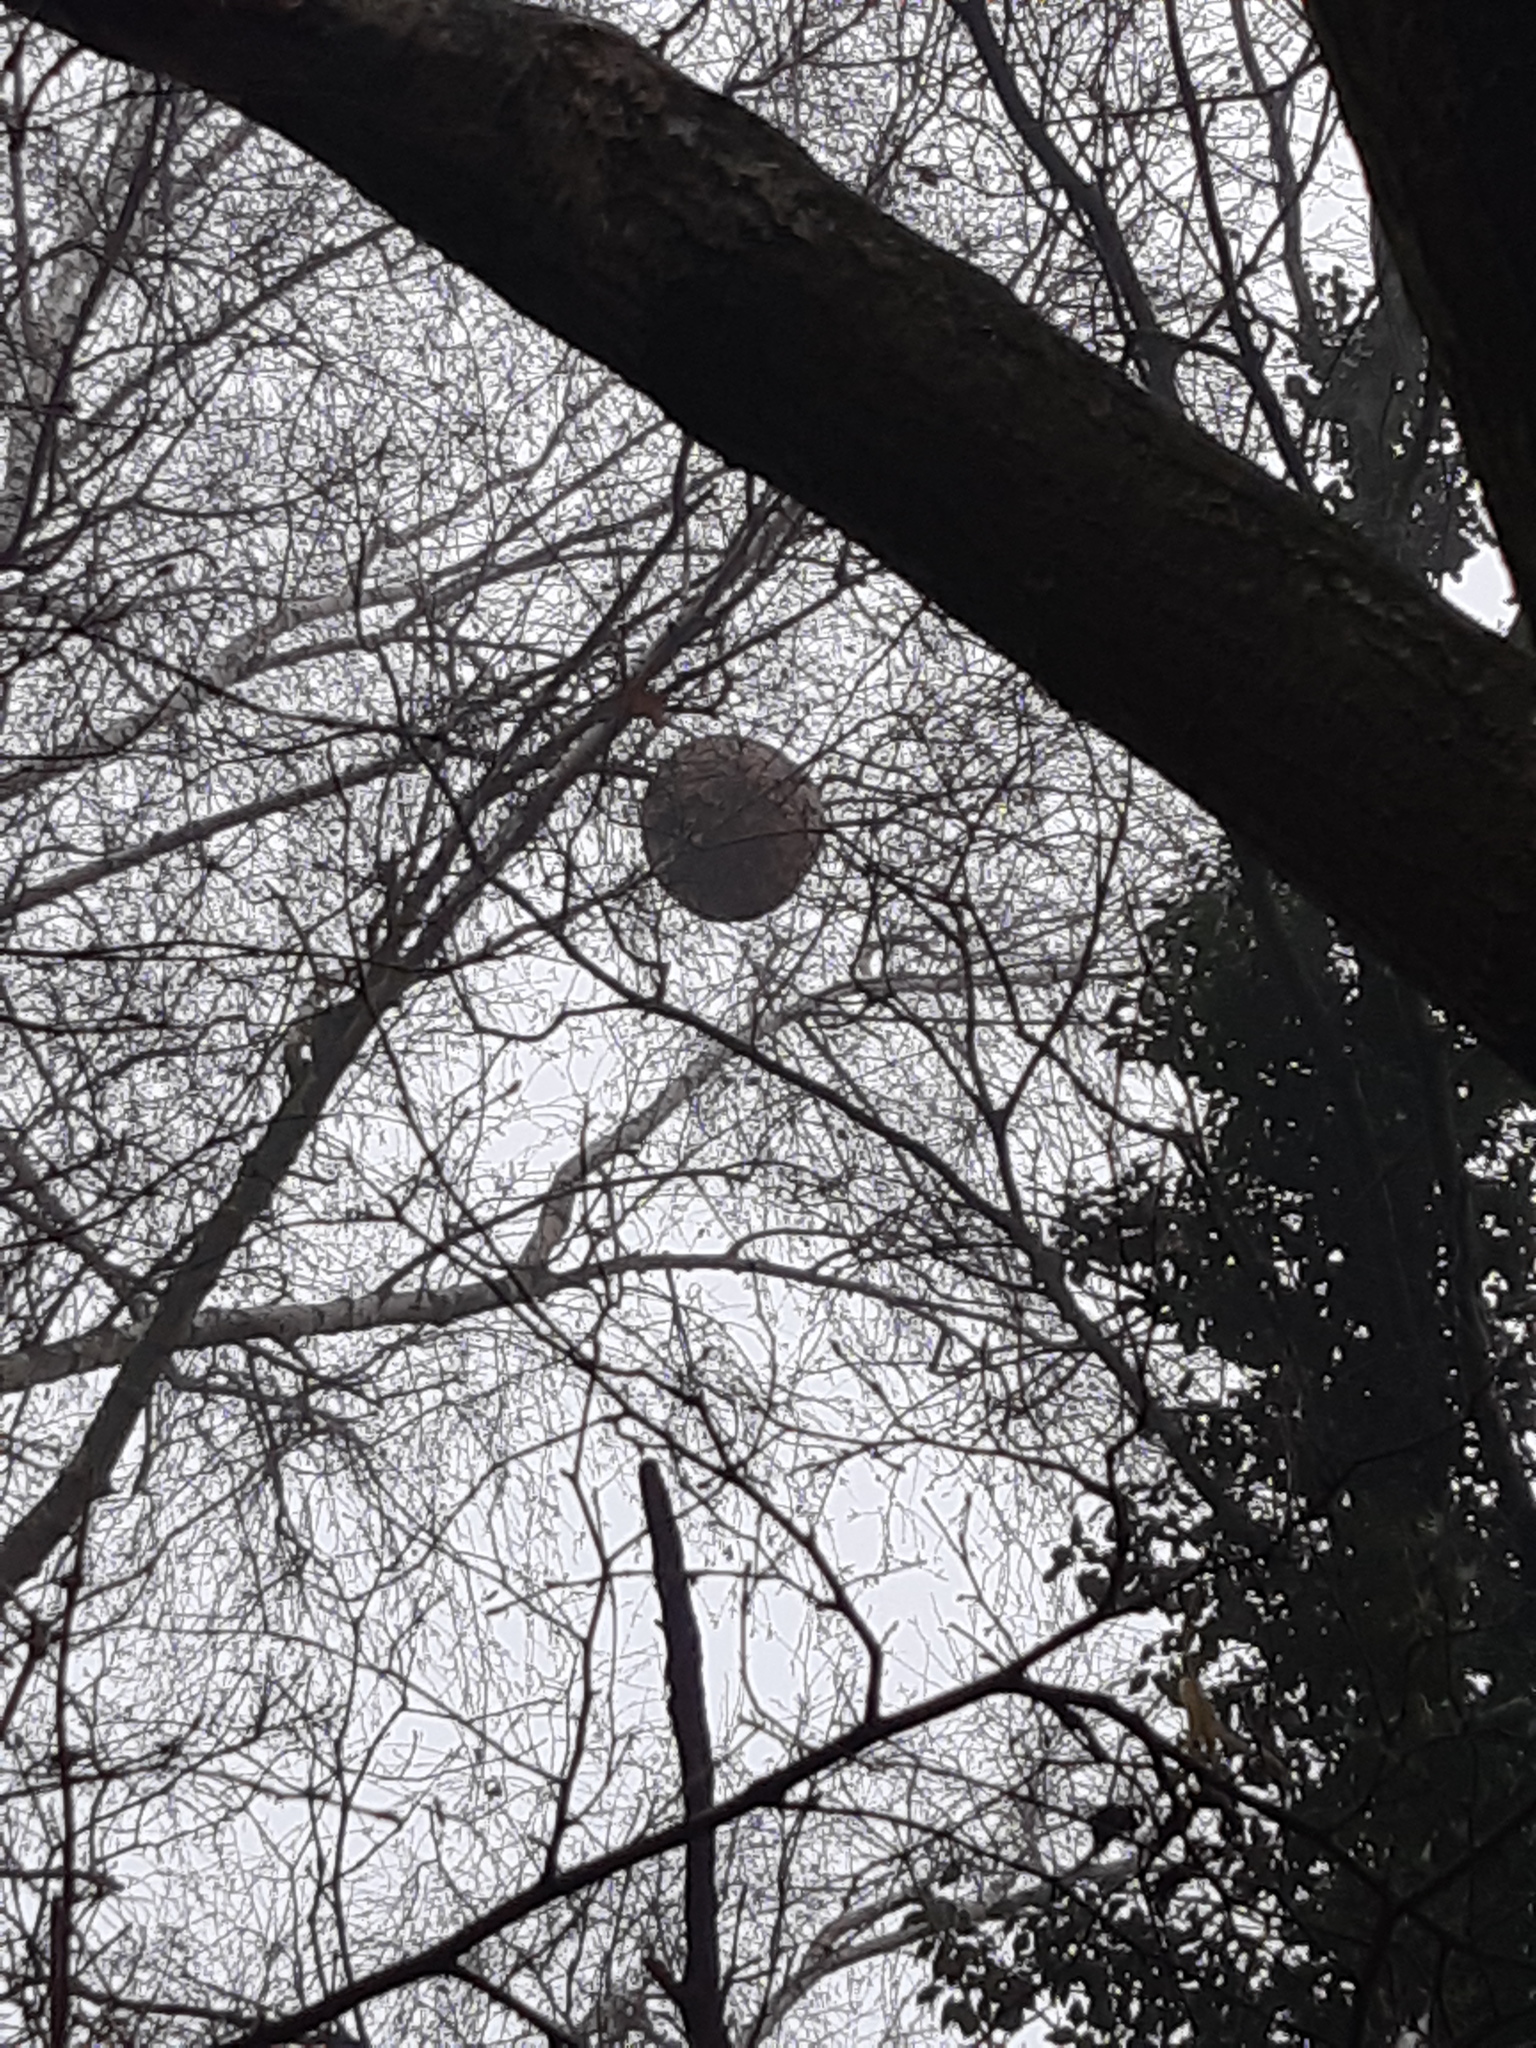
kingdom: Animalia
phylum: Arthropoda
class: Insecta
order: Hymenoptera
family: Vespidae
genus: Vespa
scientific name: Vespa velutina
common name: Asian hornet
